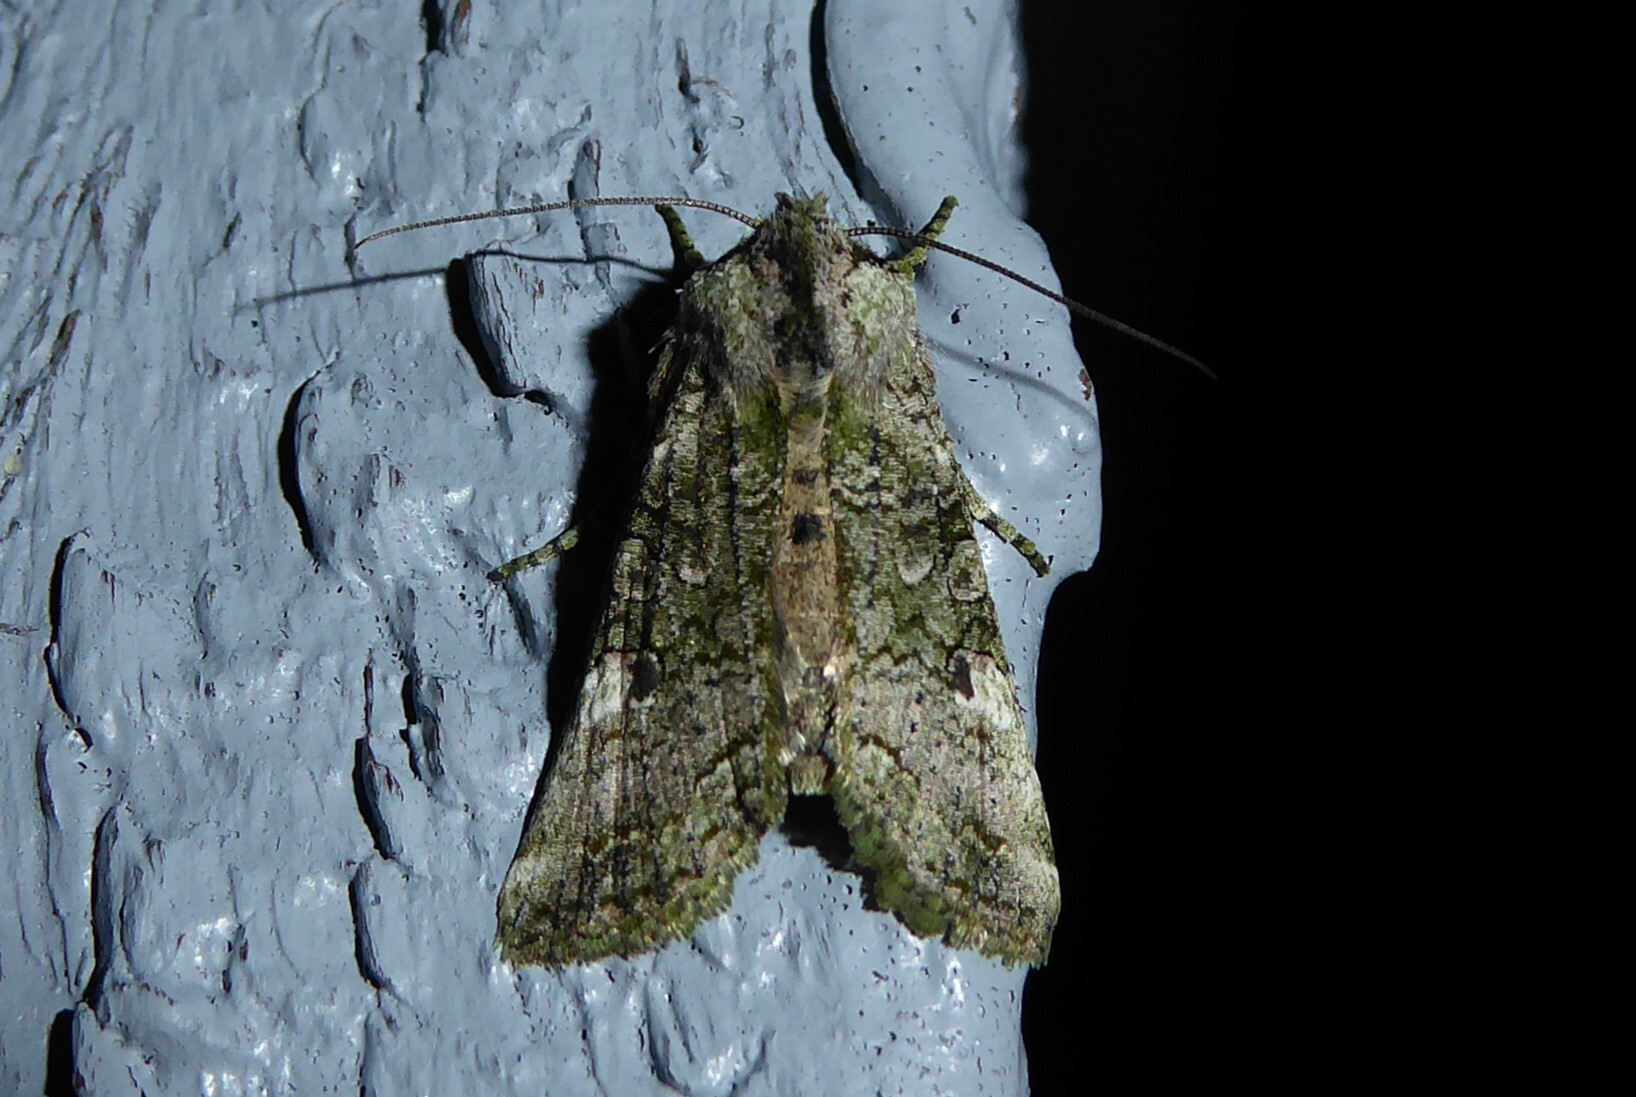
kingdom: Animalia
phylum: Arthropoda
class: Insecta
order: Lepidoptera
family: Noctuidae
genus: Meterana
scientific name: Meterana levis
